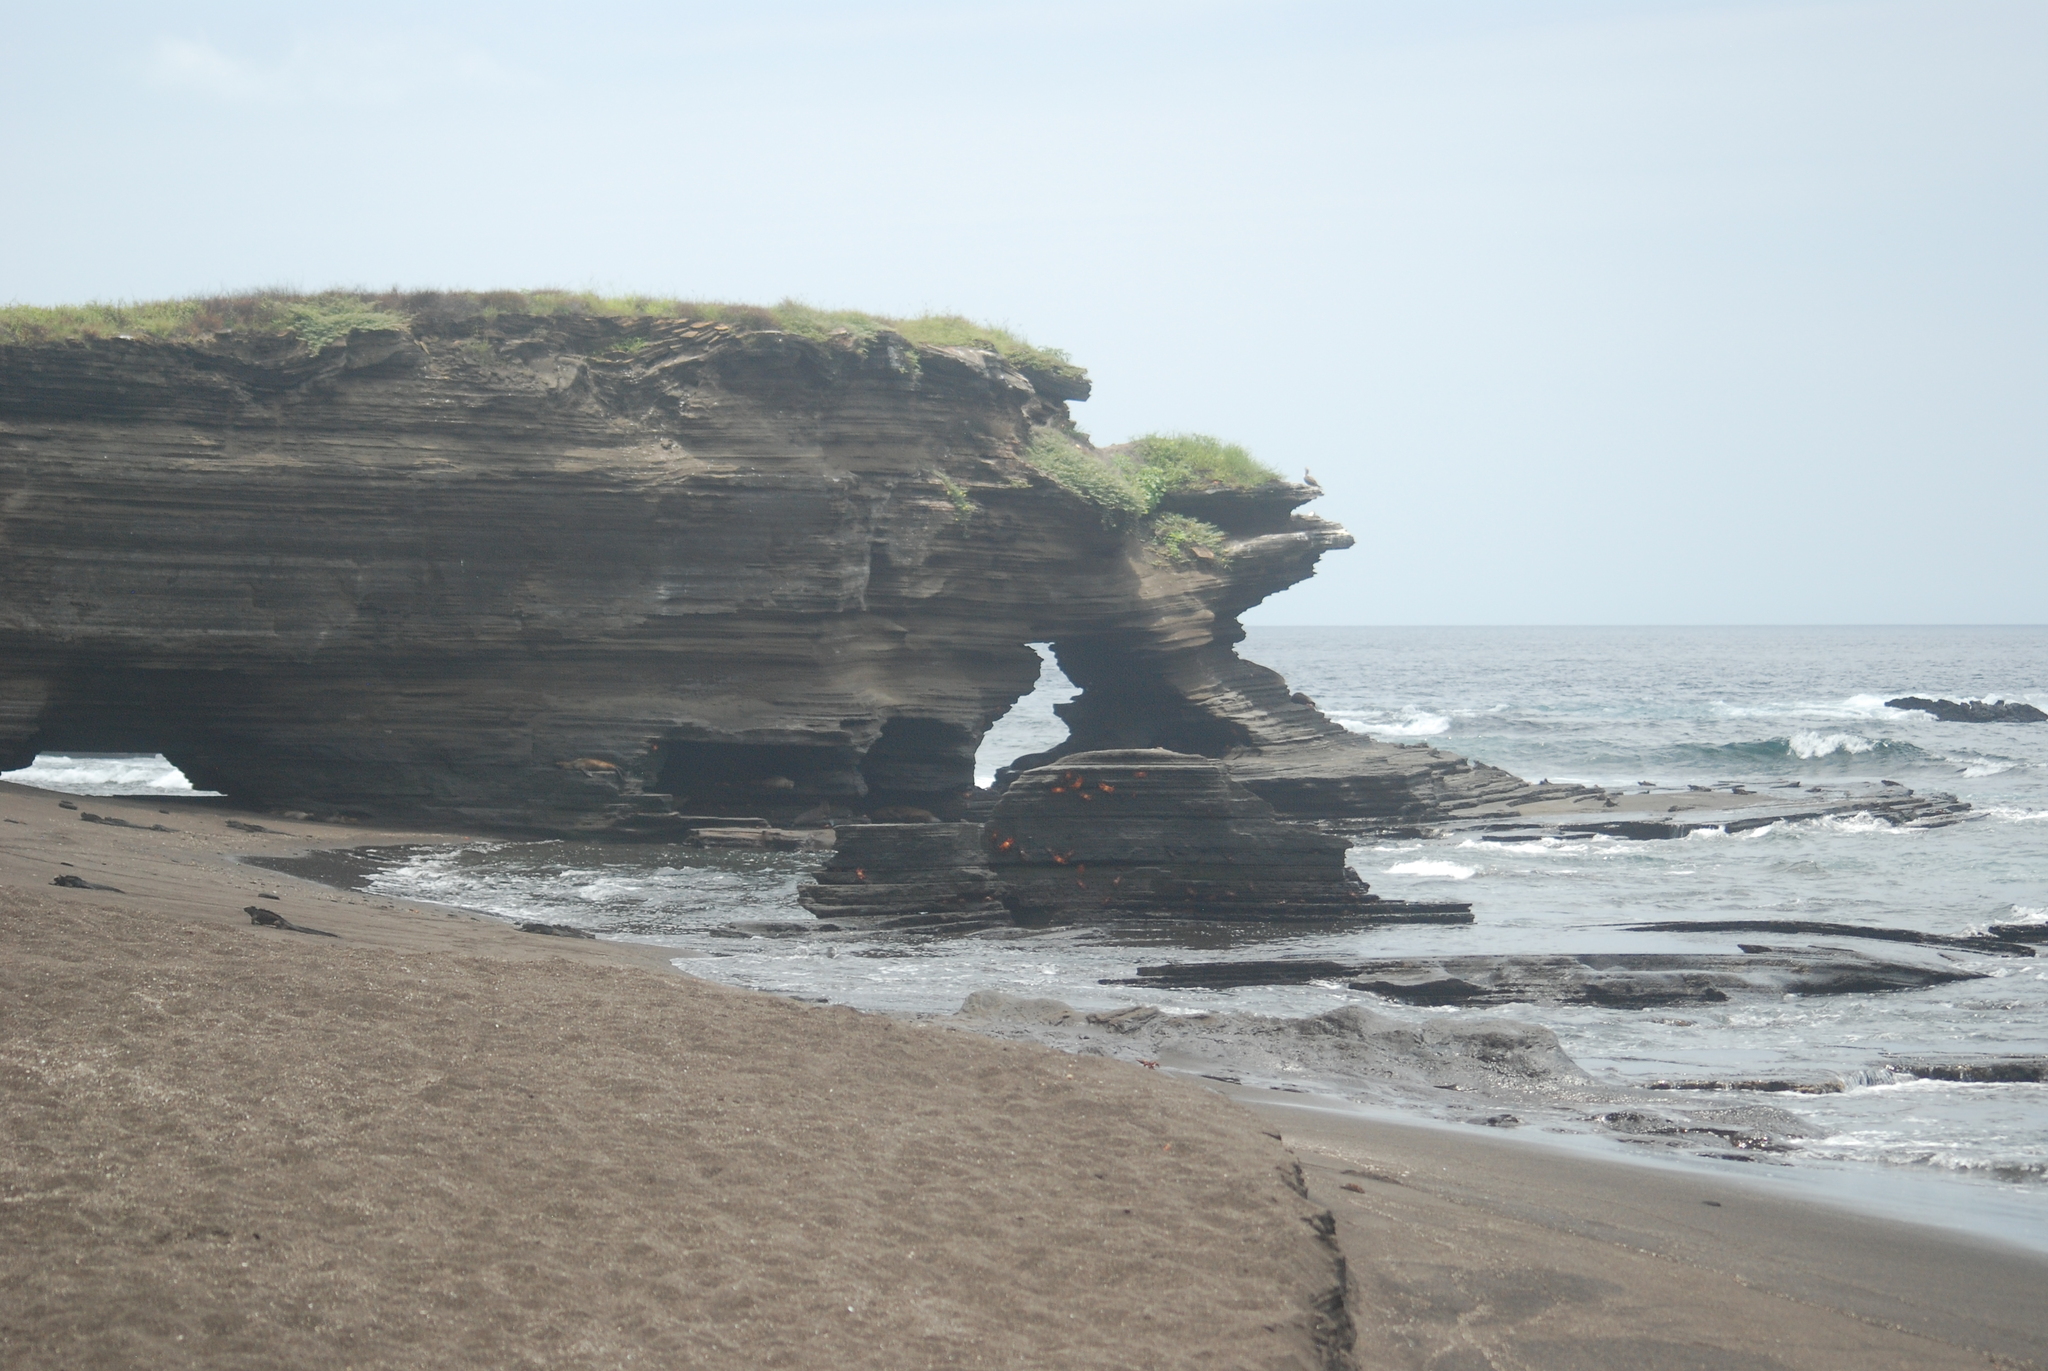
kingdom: Animalia
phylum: Chordata
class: Squamata
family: Iguanidae
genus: Amblyrhynchus
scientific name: Amblyrhynchus cristatus
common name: Marine iguana
